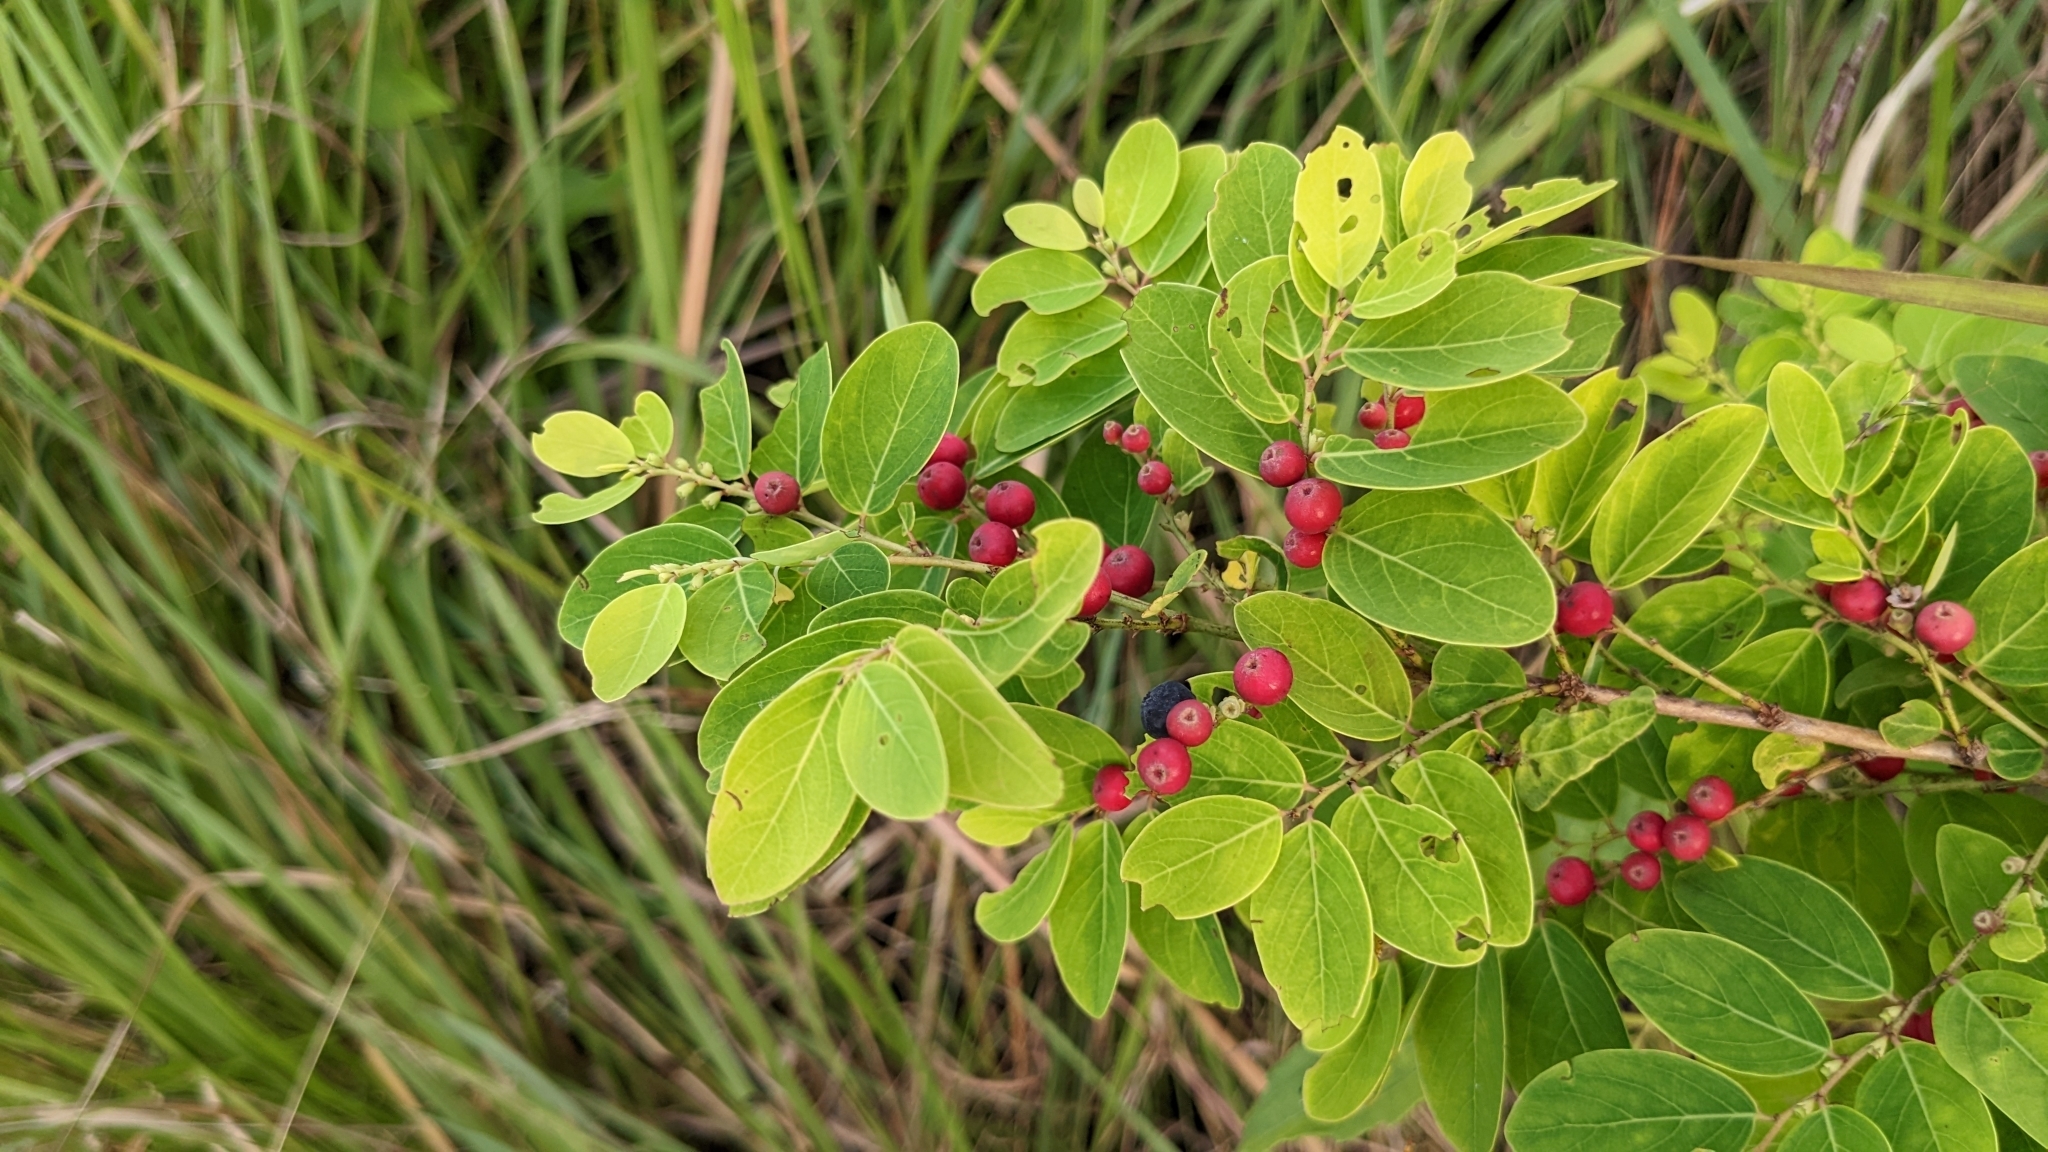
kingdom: Plantae
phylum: Tracheophyta
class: Magnoliopsida
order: Malpighiales
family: Phyllanthaceae
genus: Breynia
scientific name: Breynia vitis-idaea
